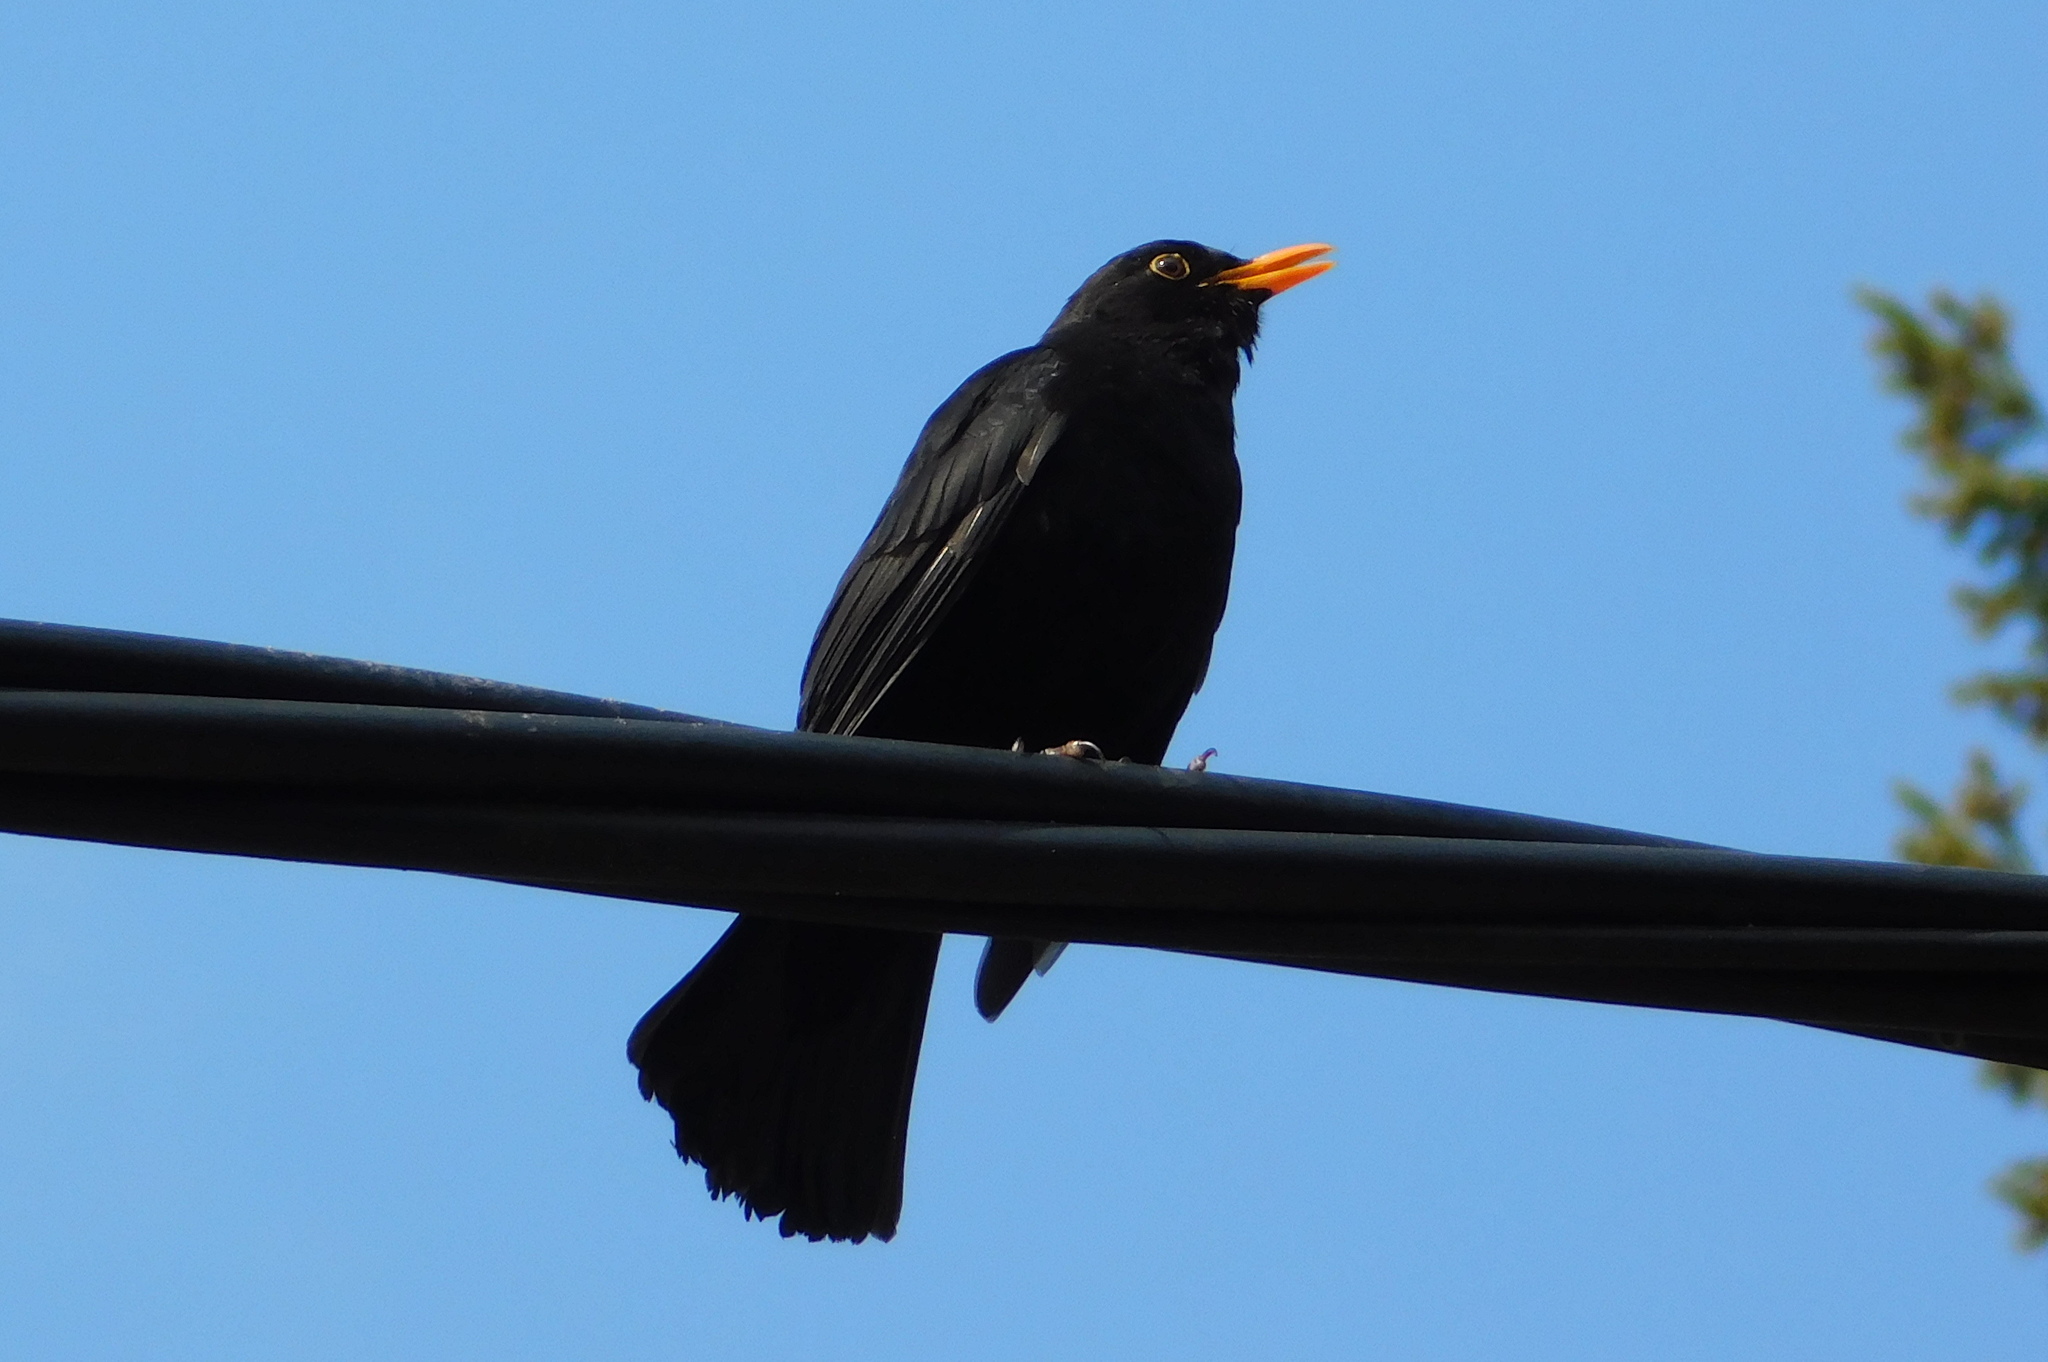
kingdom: Animalia
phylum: Chordata
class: Aves
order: Passeriformes
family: Turdidae
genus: Turdus
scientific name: Turdus merula
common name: Common blackbird
